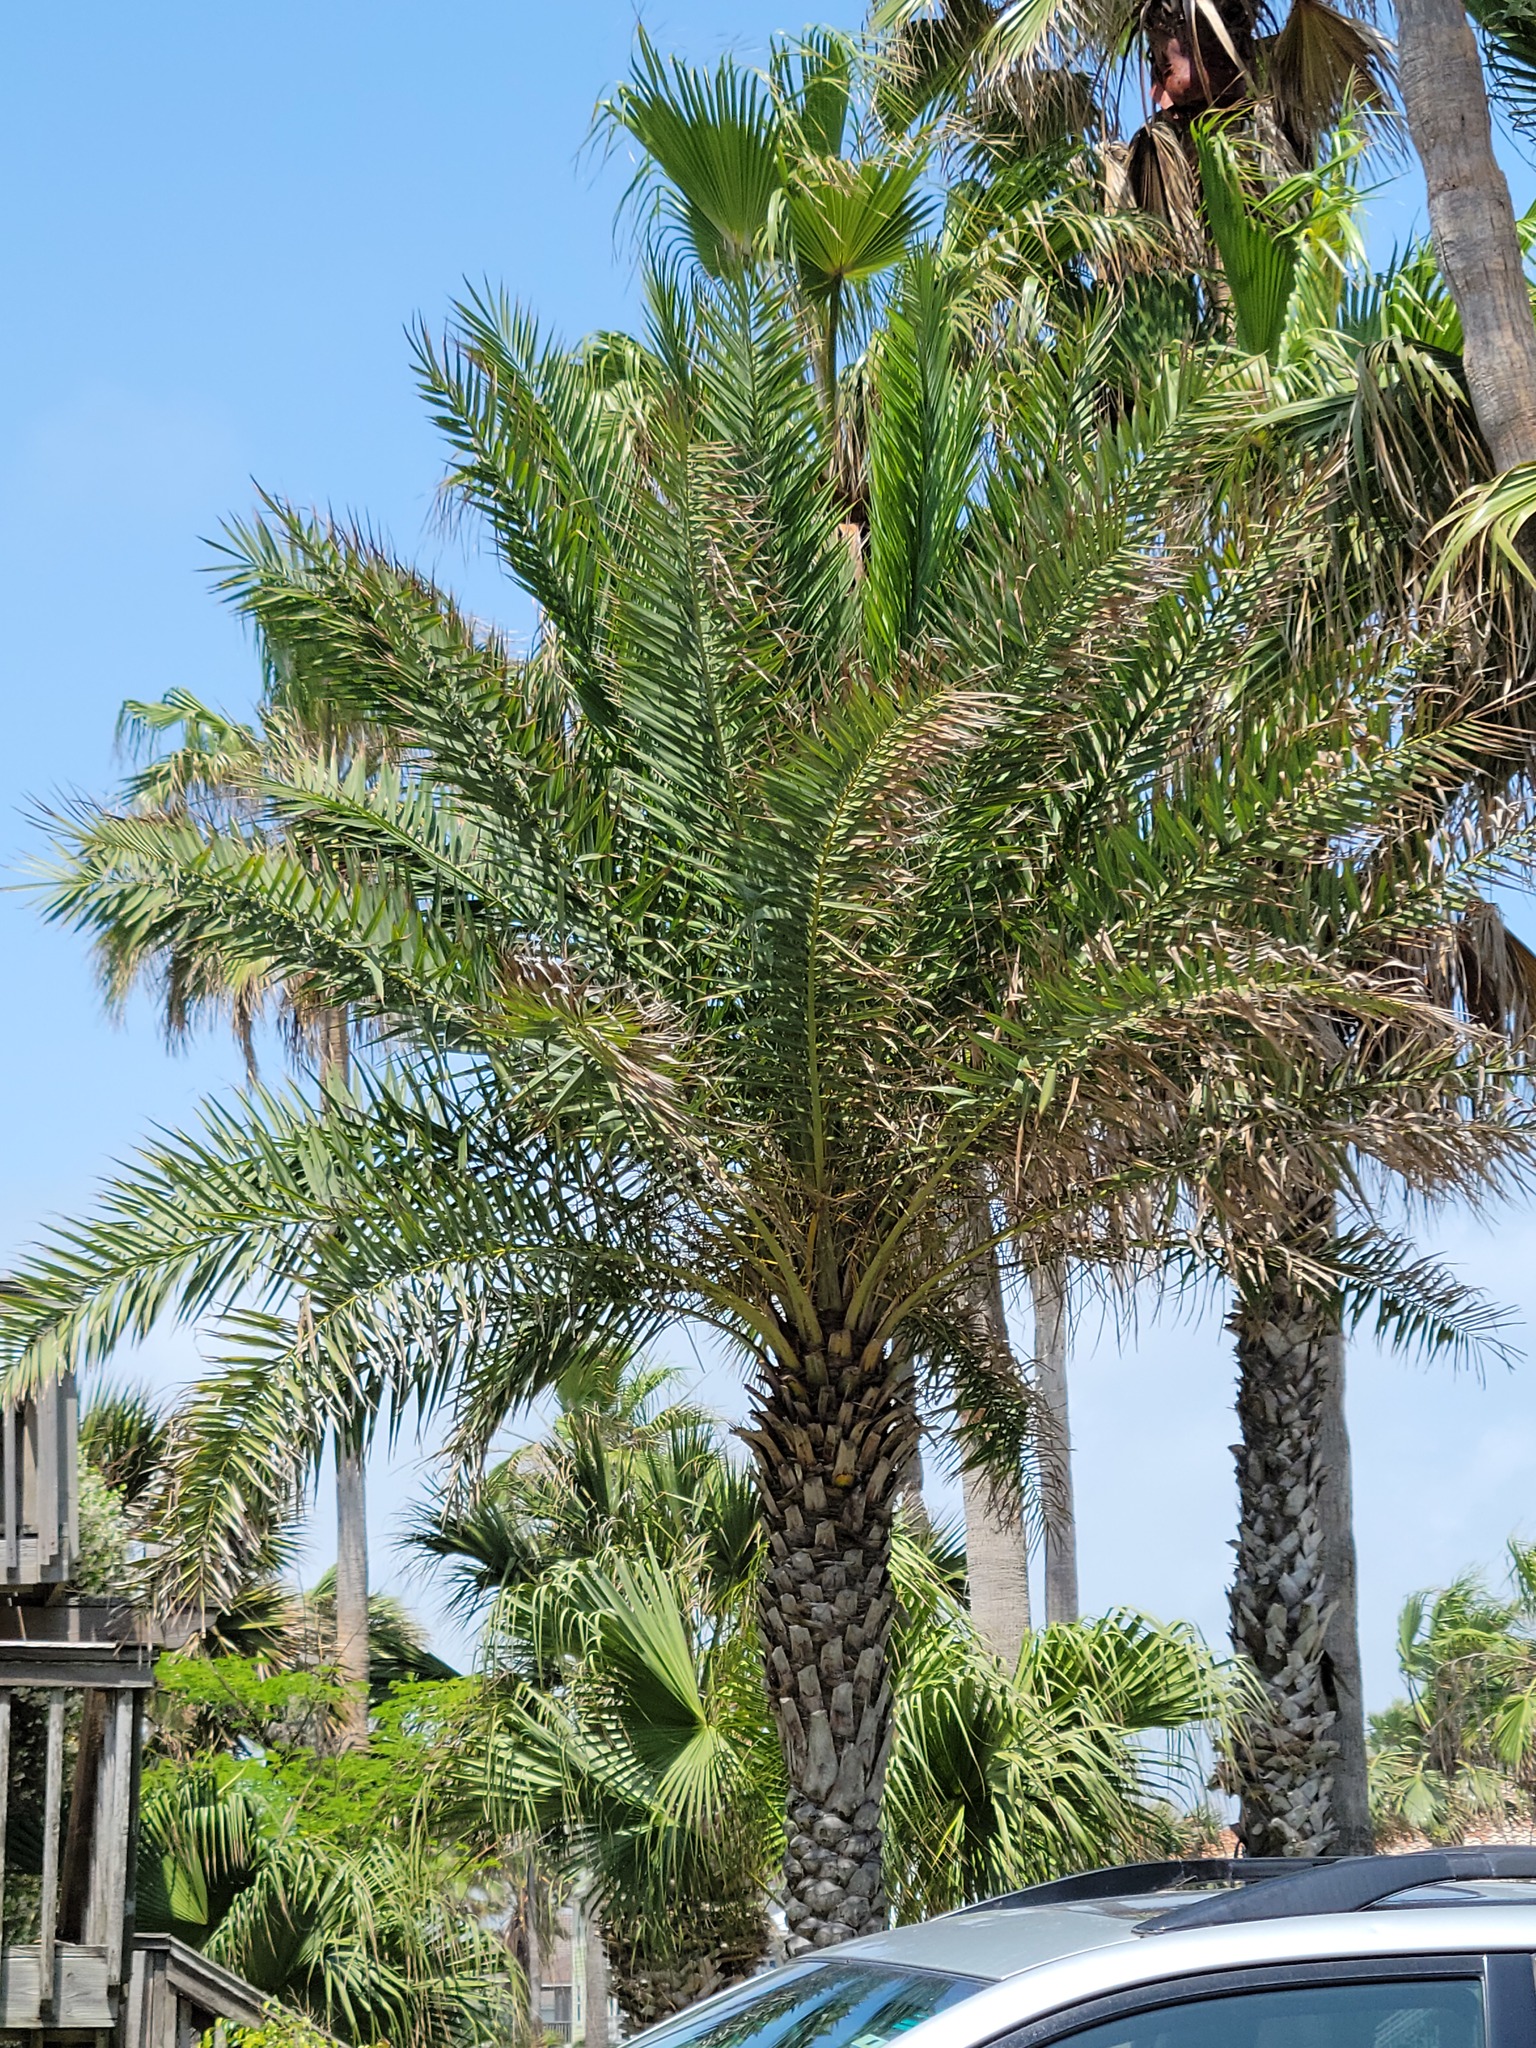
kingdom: Plantae
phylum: Tracheophyta
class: Liliopsida
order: Arecales
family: Arecaceae
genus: Phoenix
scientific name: Phoenix dactylifera
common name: Date palm
